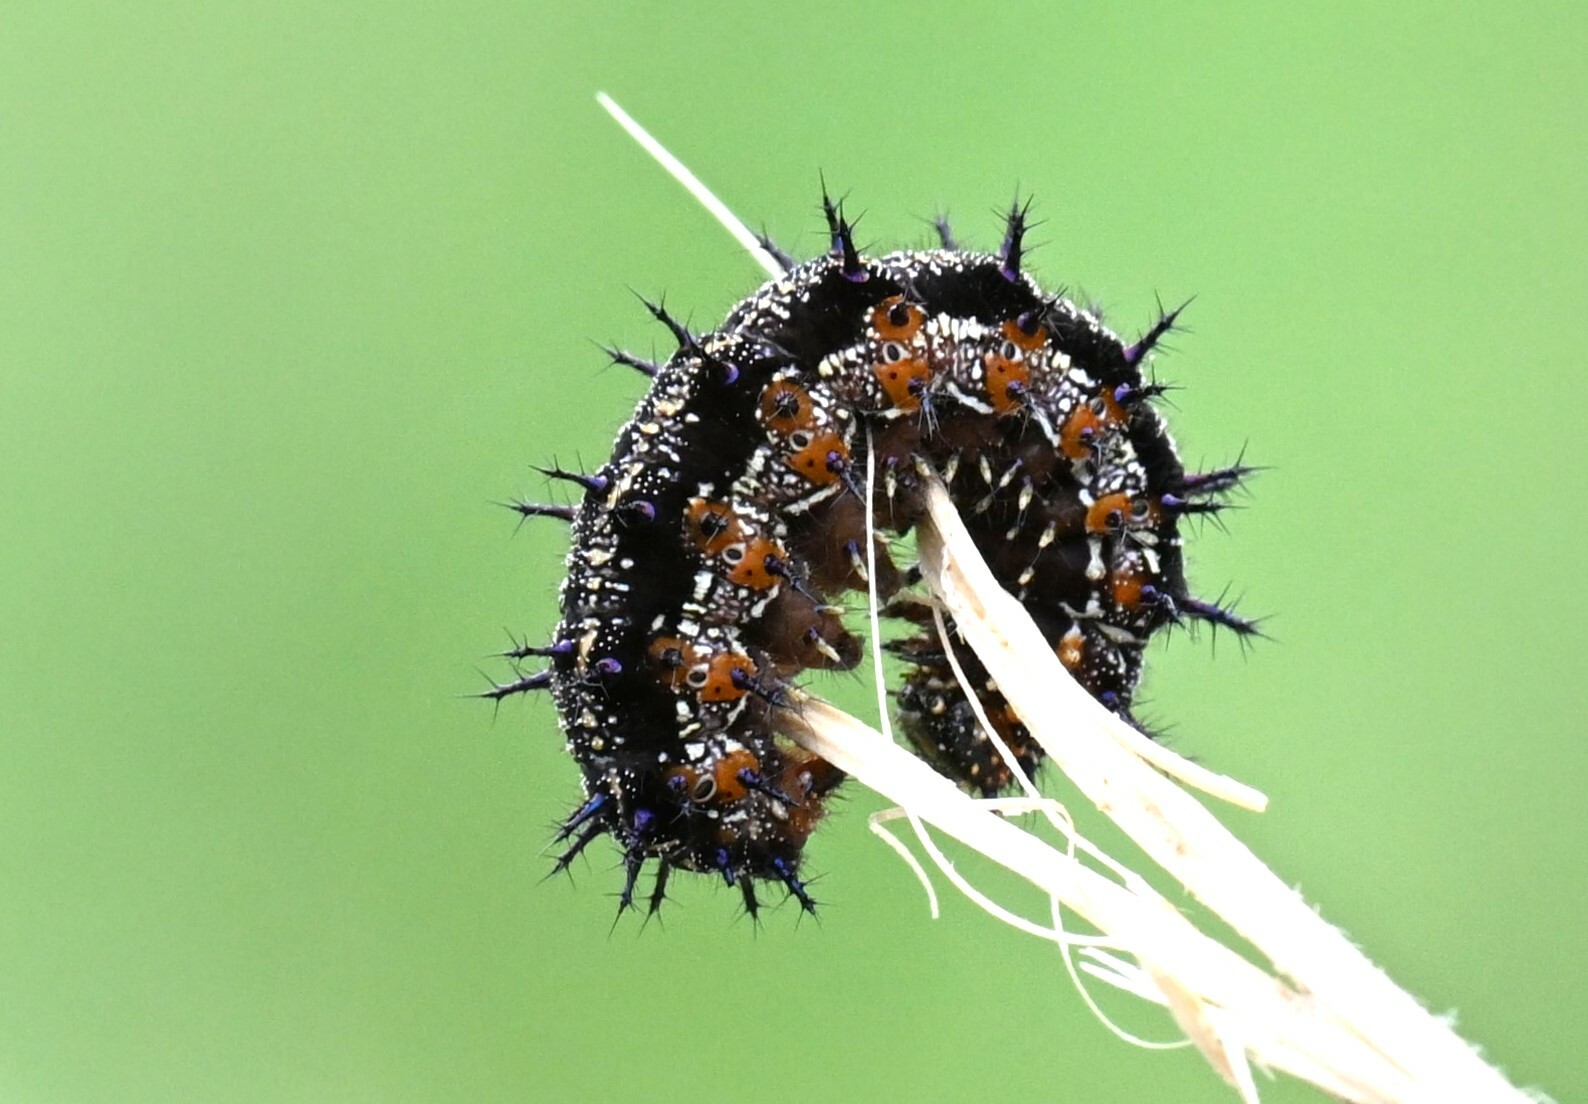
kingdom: Animalia
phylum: Arthropoda
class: Insecta
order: Lepidoptera
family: Nymphalidae
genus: Junonia
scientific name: Junonia coenia
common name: Common buckeye
